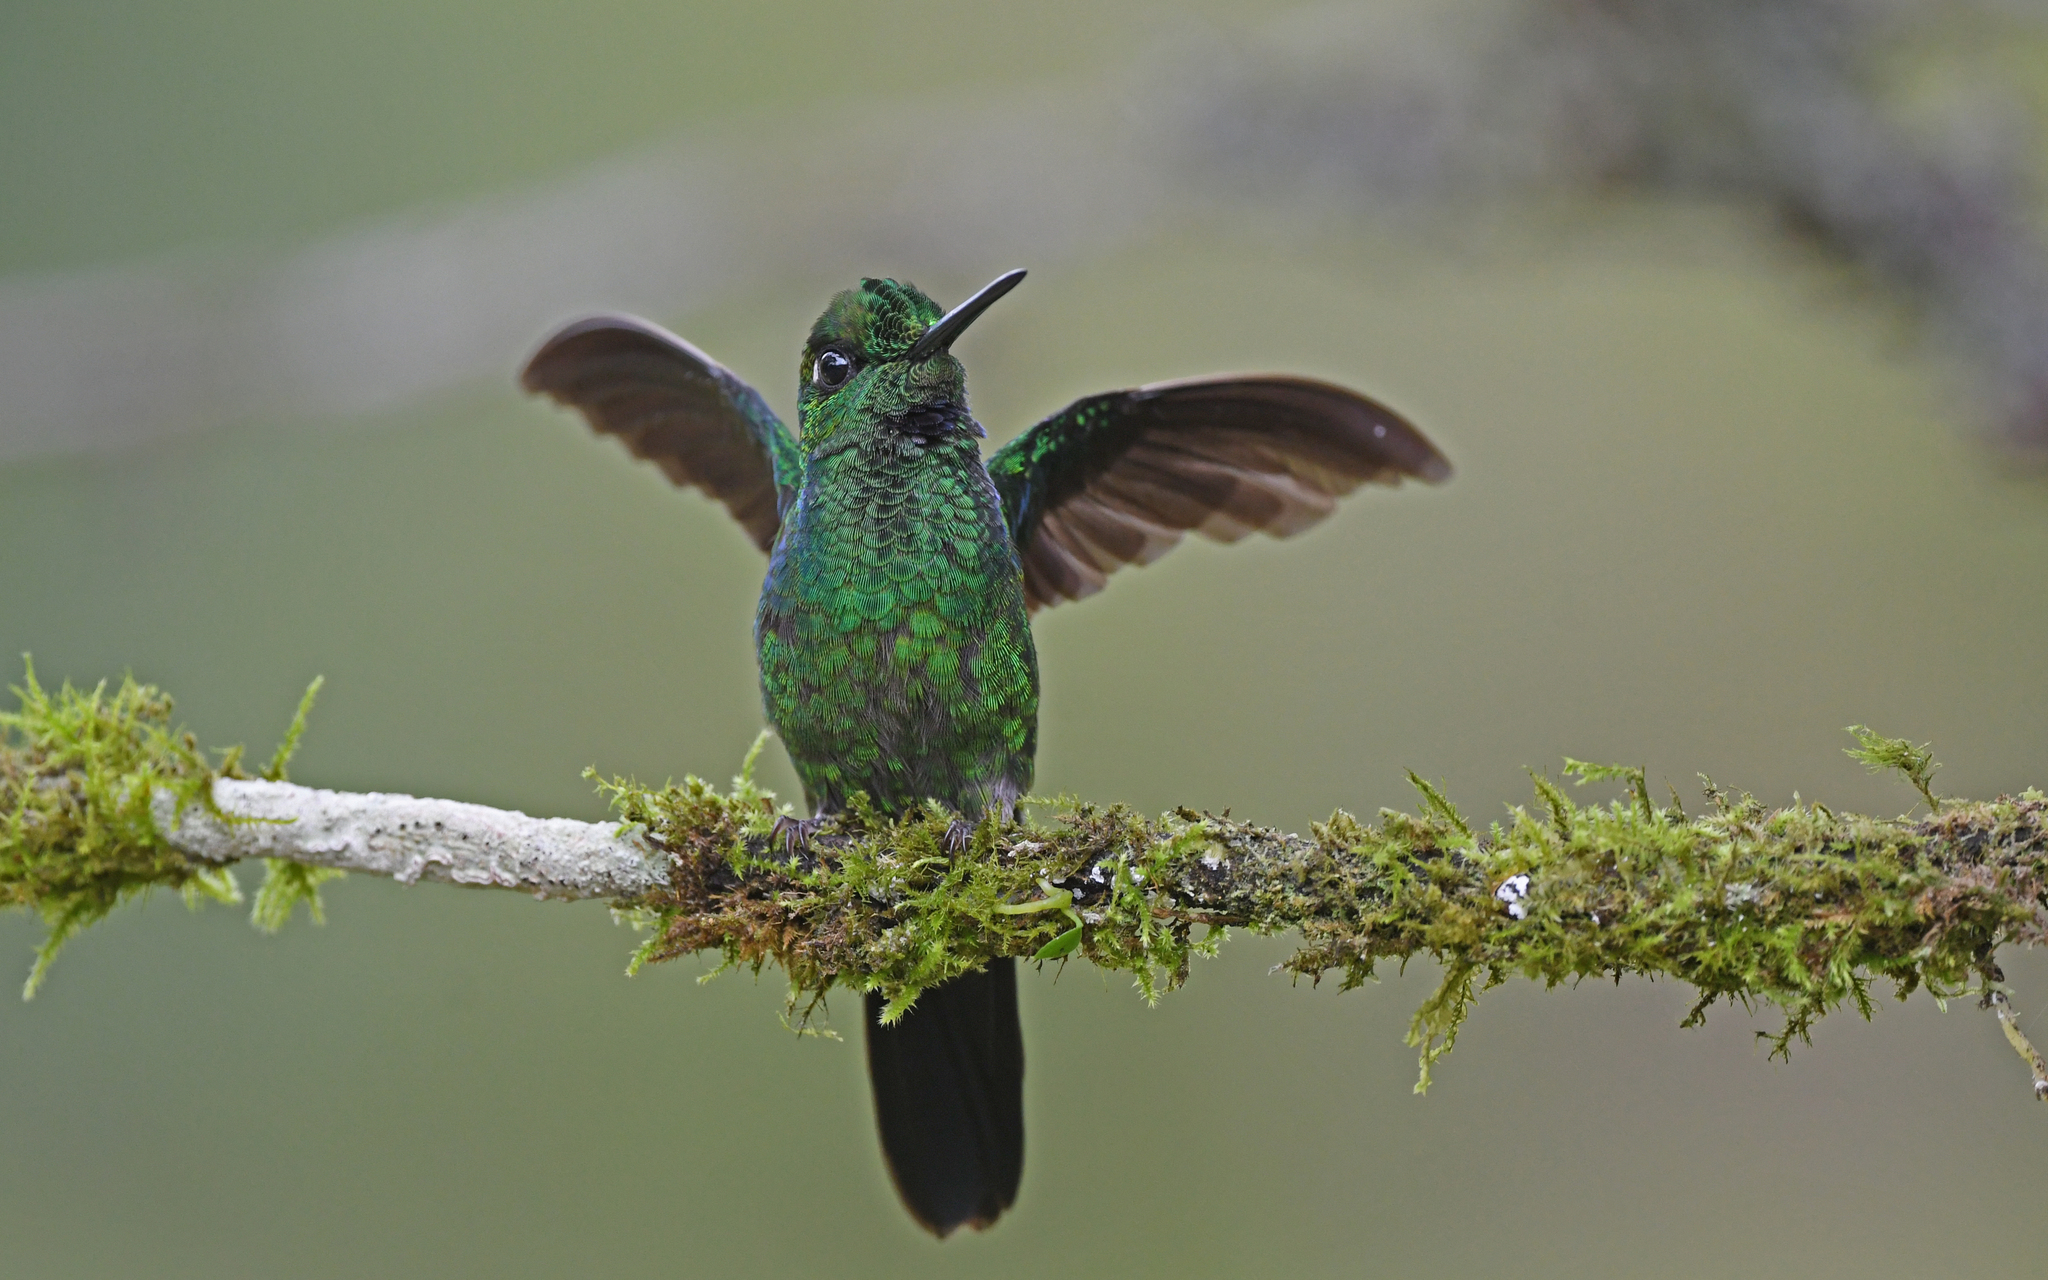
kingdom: Animalia
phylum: Chordata
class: Aves
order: Apodiformes
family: Trochilidae
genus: Heliodoxa
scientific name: Heliodoxa jacula
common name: Green-crowned brilliant
